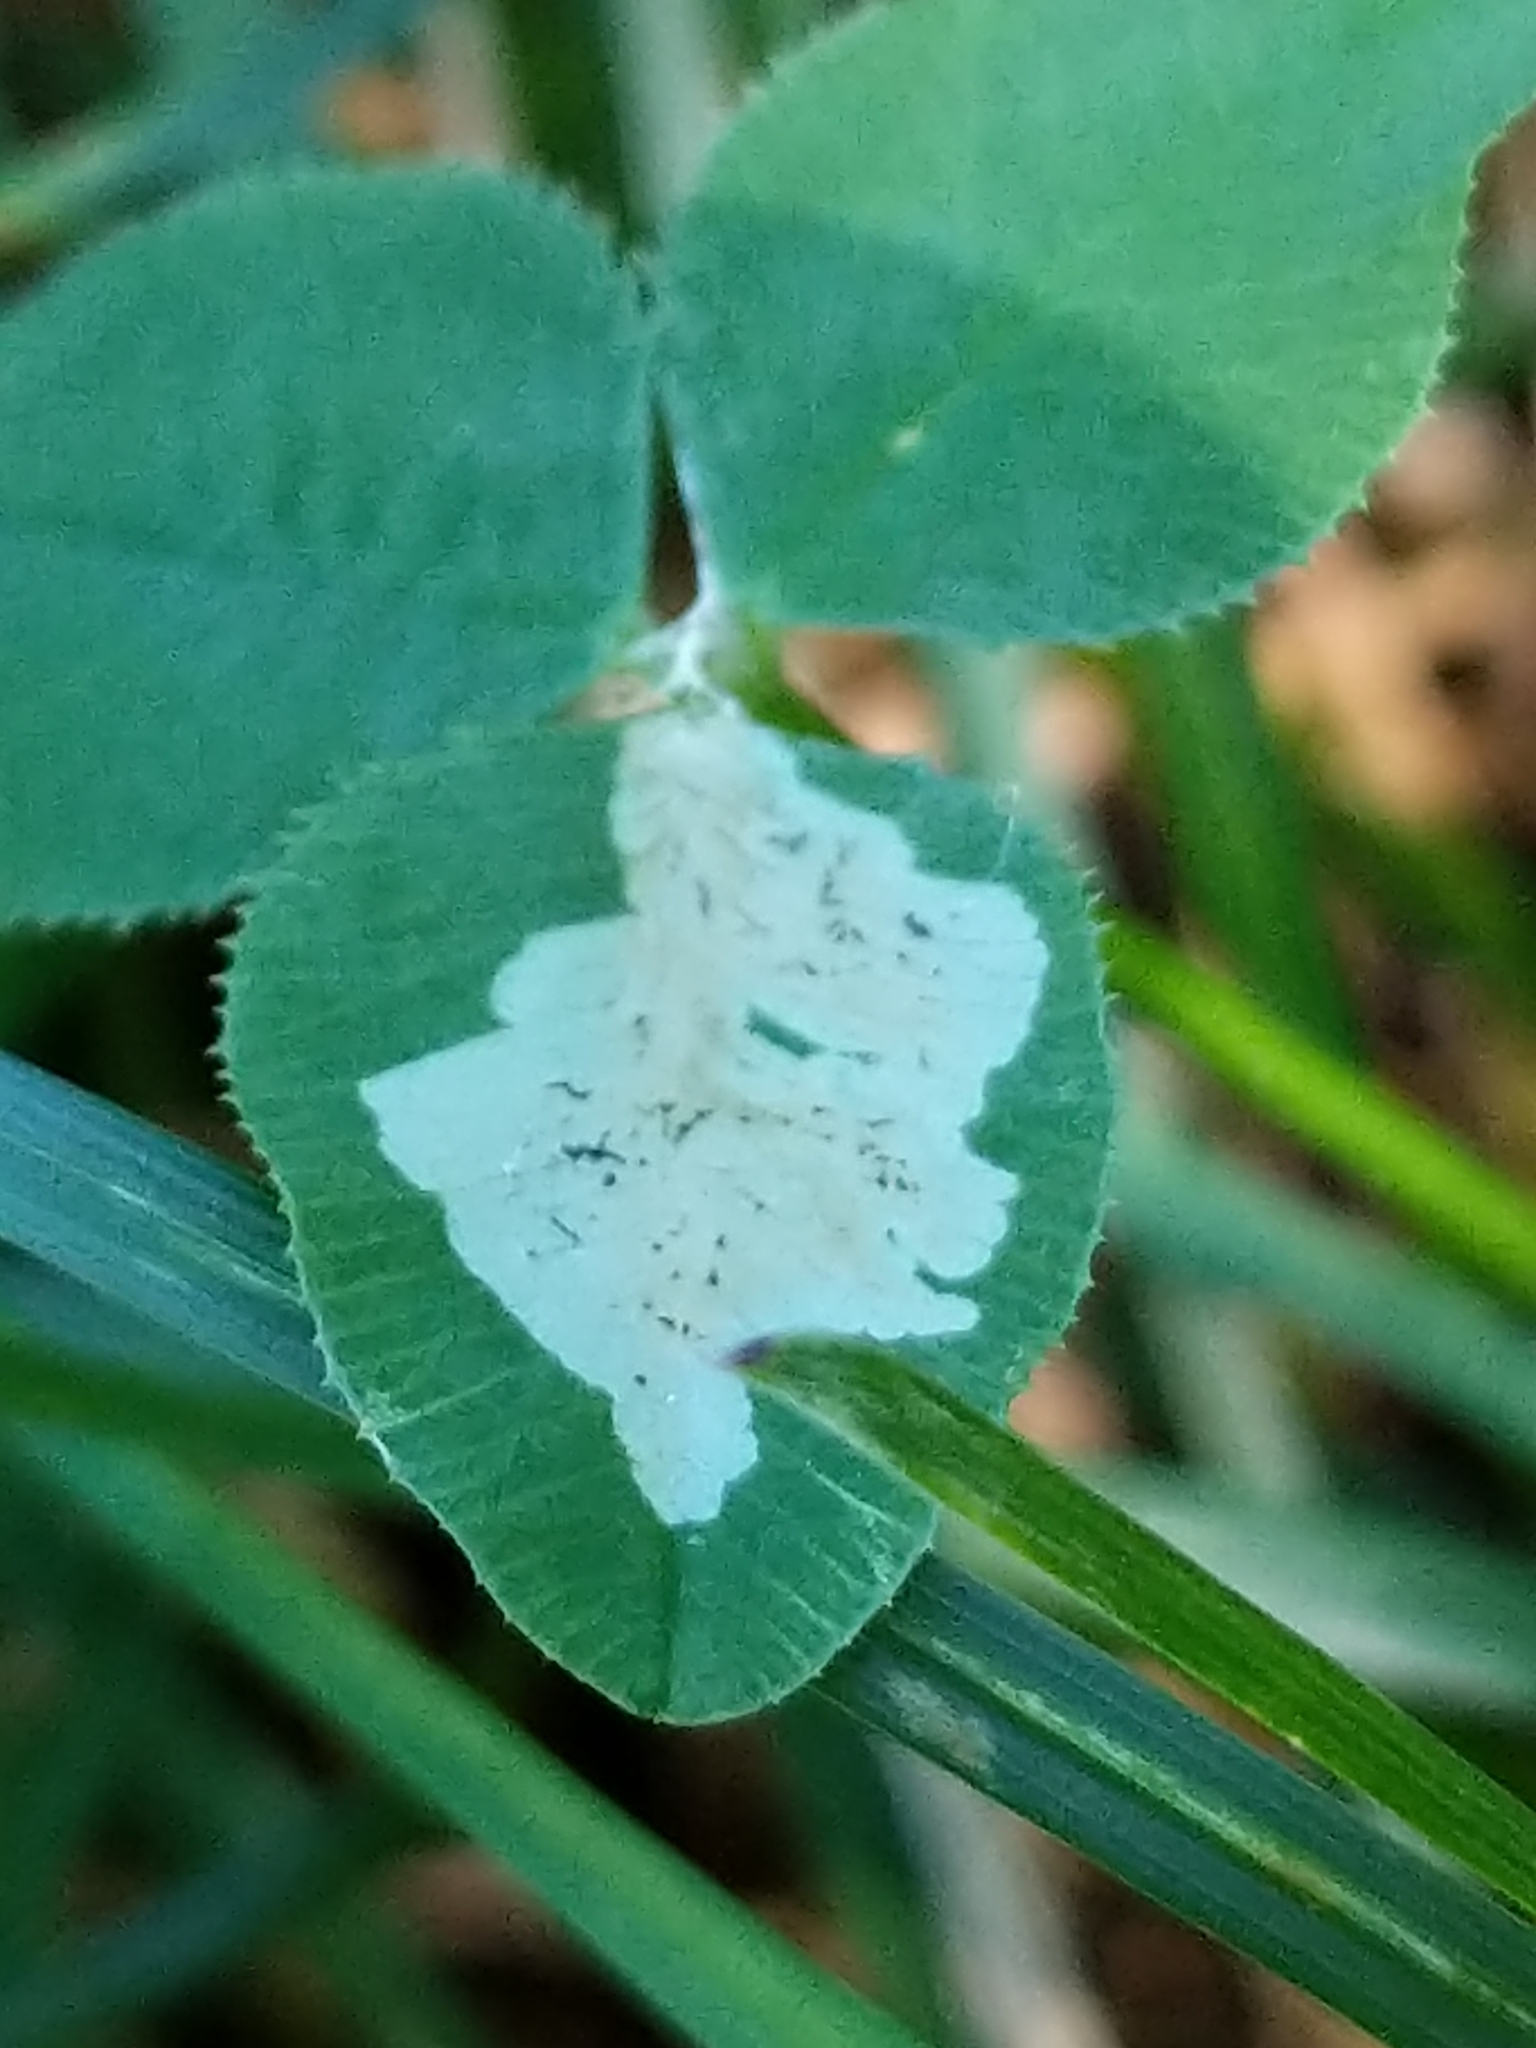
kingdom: Animalia
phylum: Arthropoda
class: Insecta
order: Diptera
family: Agromyzidae
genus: Liriomyza
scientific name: Liriomyza fricki
